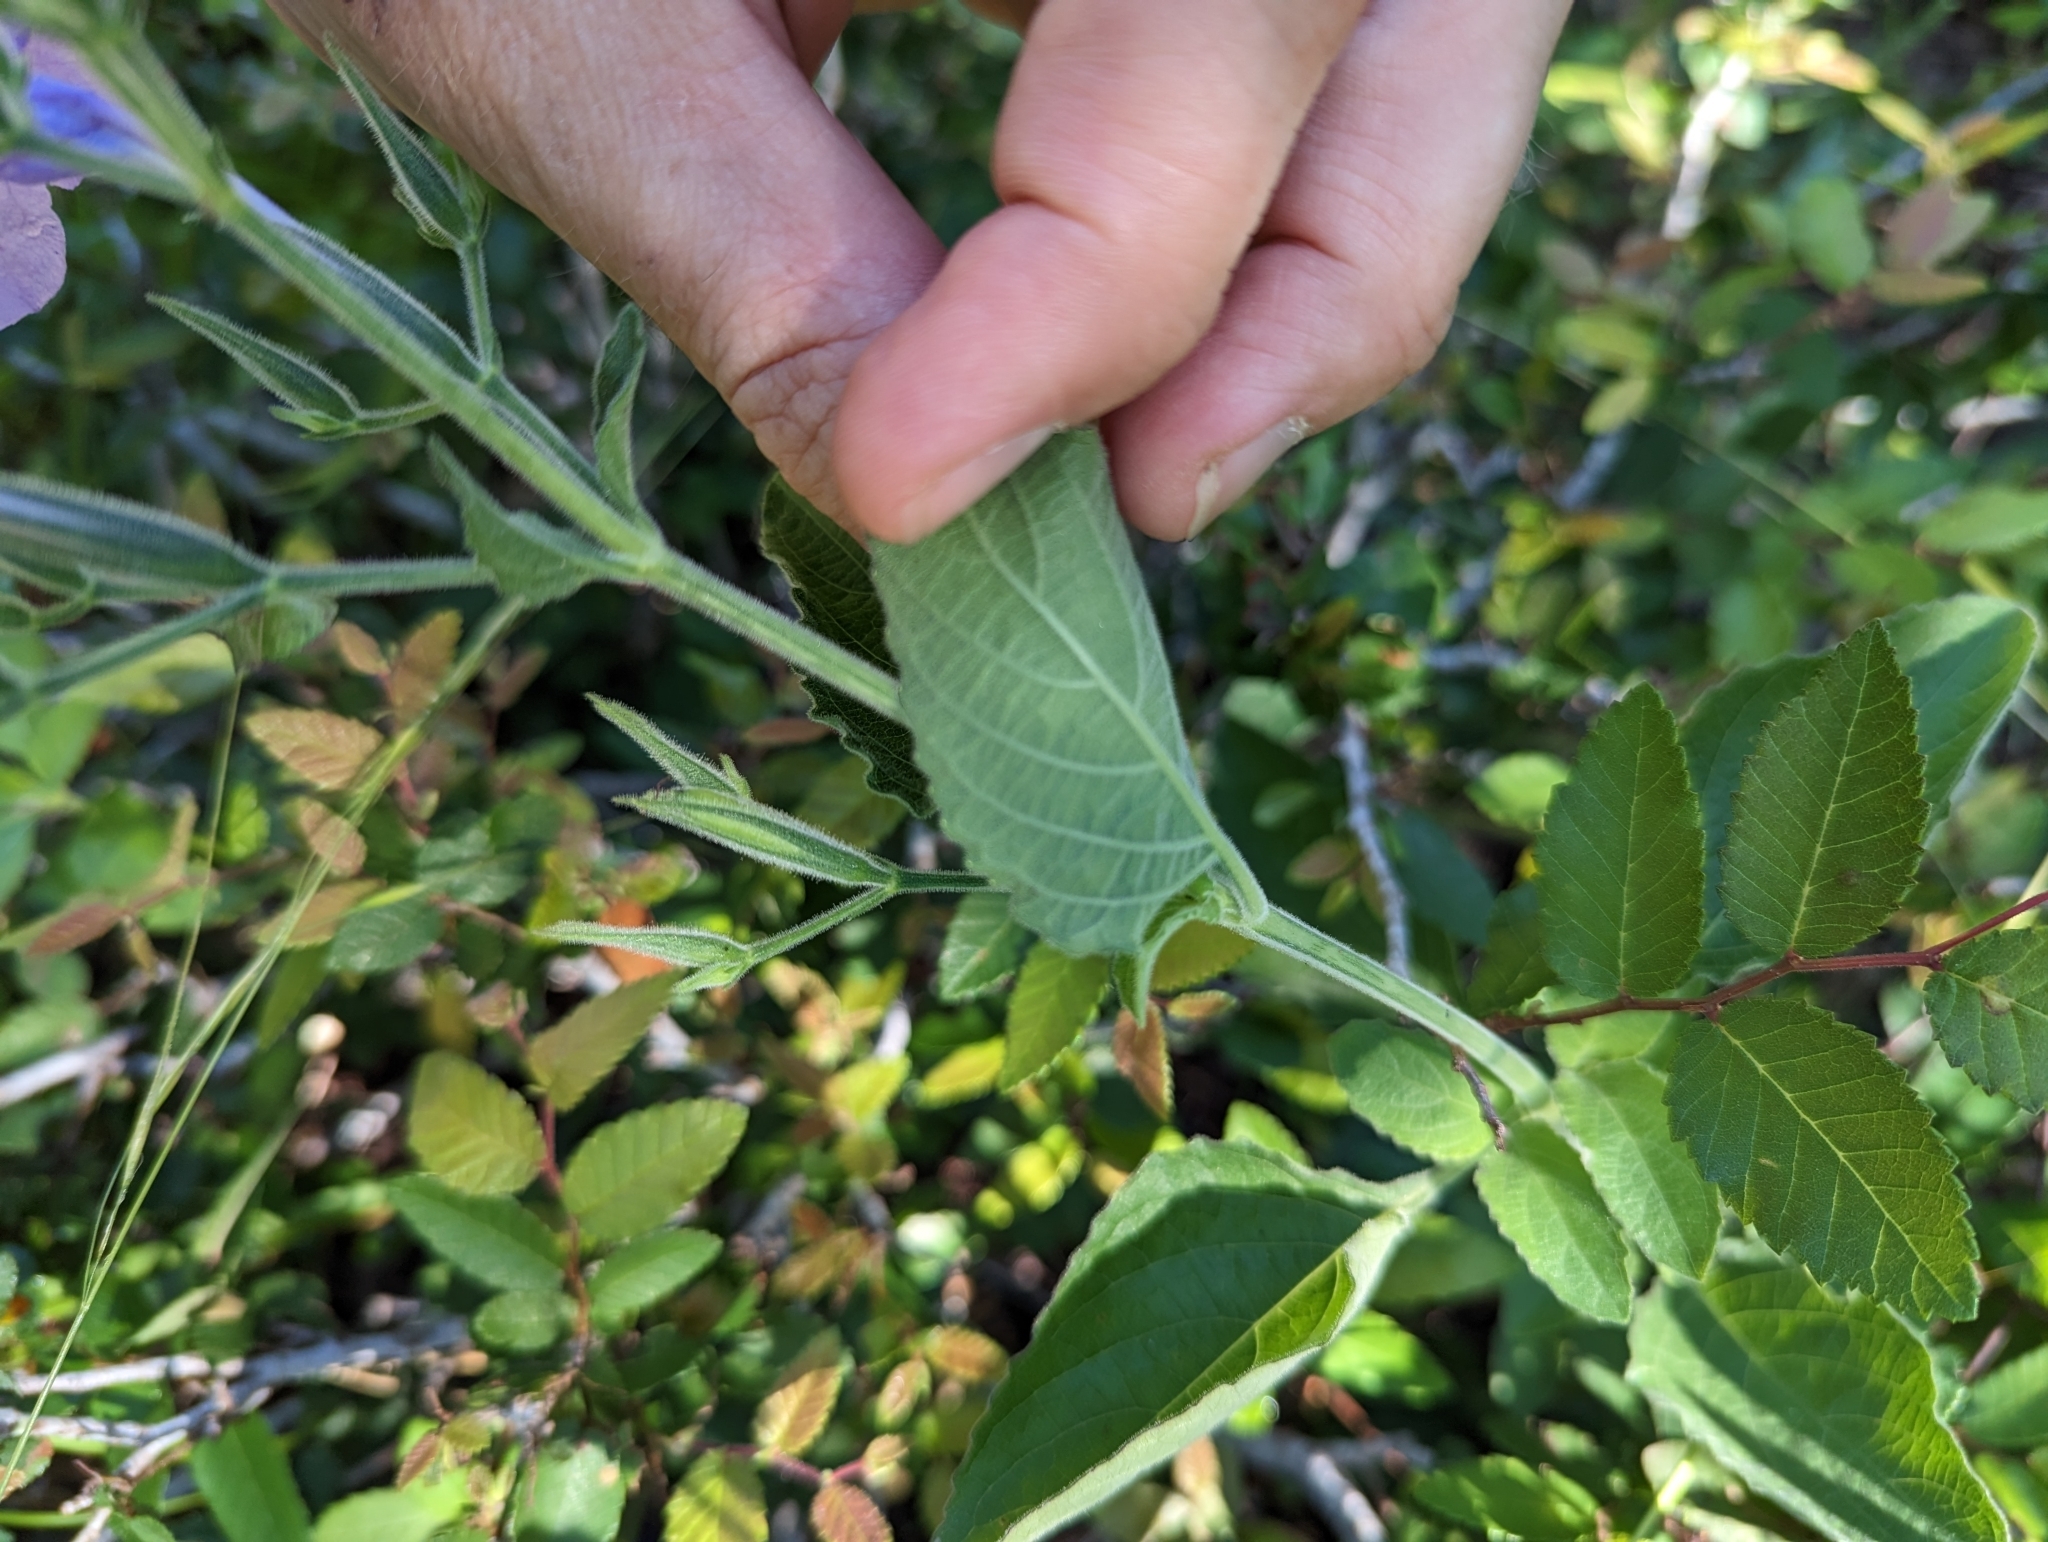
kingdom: Plantae
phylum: Tracheophyta
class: Magnoliopsida
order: Lamiales
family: Acanthaceae
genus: Ruellia
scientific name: Ruellia ciliatiflora
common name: Hairyflower wild petunia
